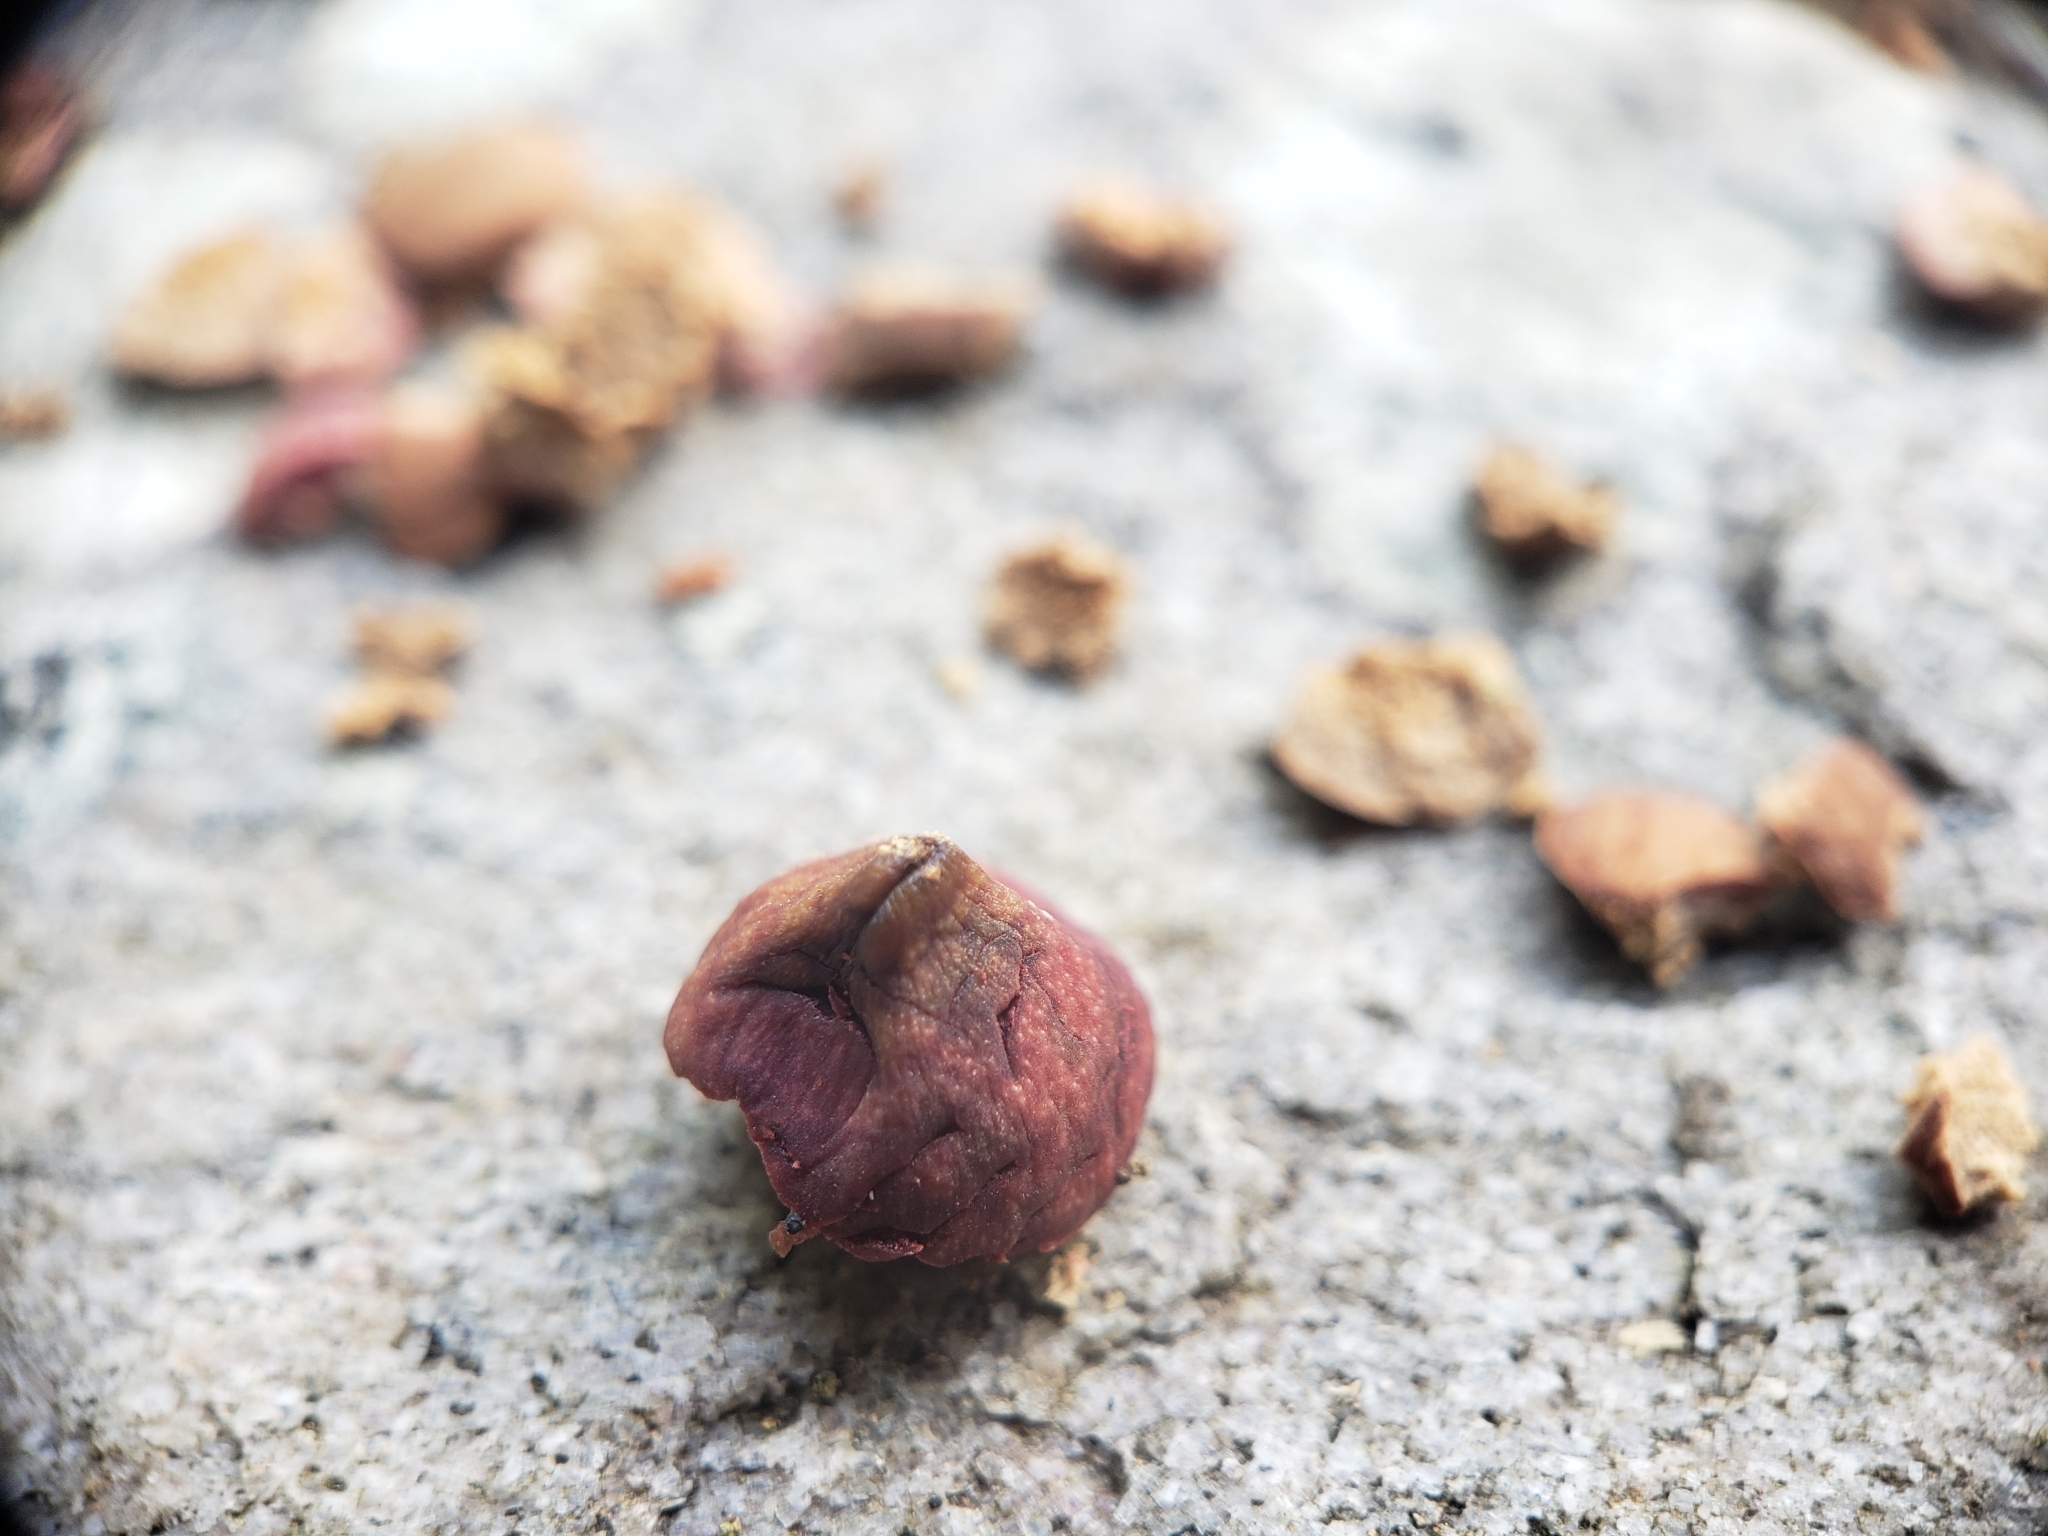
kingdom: Animalia
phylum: Arthropoda
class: Insecta
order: Hymenoptera
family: Cynipidae
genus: Kokkocynips
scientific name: Kokkocynips imbricariae
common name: Banded bullet gall wasp
